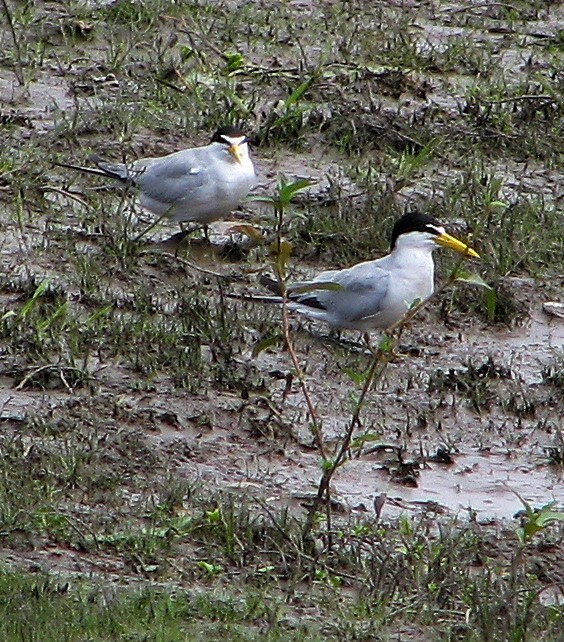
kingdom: Animalia
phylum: Chordata
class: Aves
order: Charadriiformes
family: Laridae
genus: Sternula
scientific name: Sternula superciliaris
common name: Yellow-billed tern
